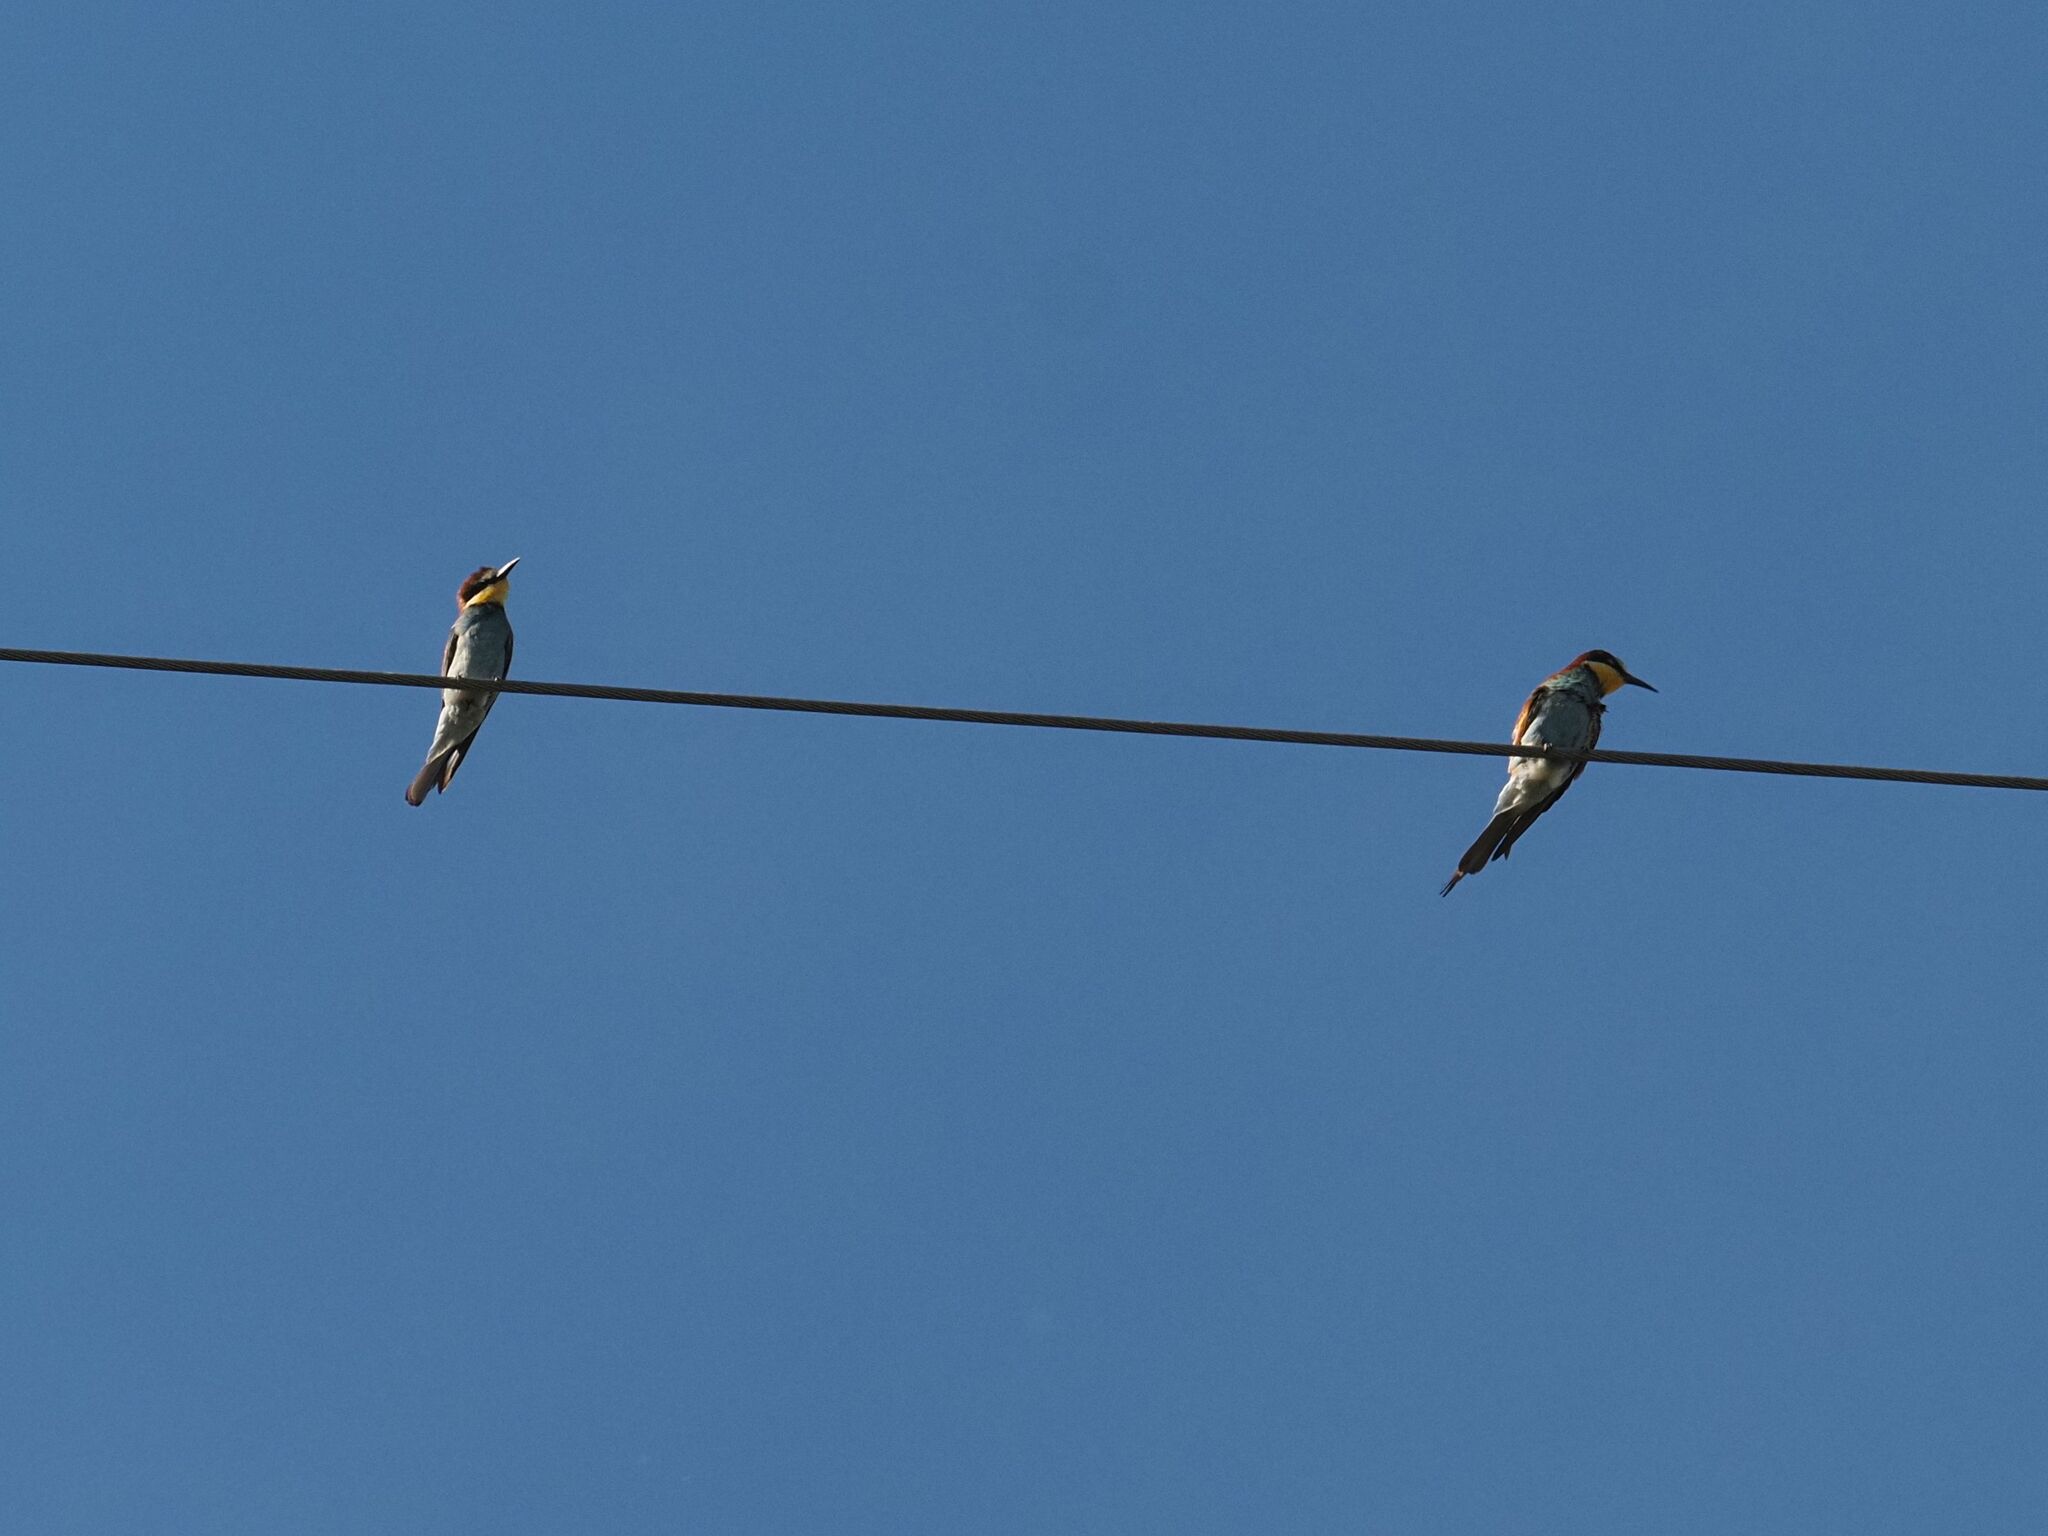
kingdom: Animalia
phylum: Chordata
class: Aves
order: Coraciiformes
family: Meropidae
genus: Merops
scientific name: Merops apiaster
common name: European bee-eater
